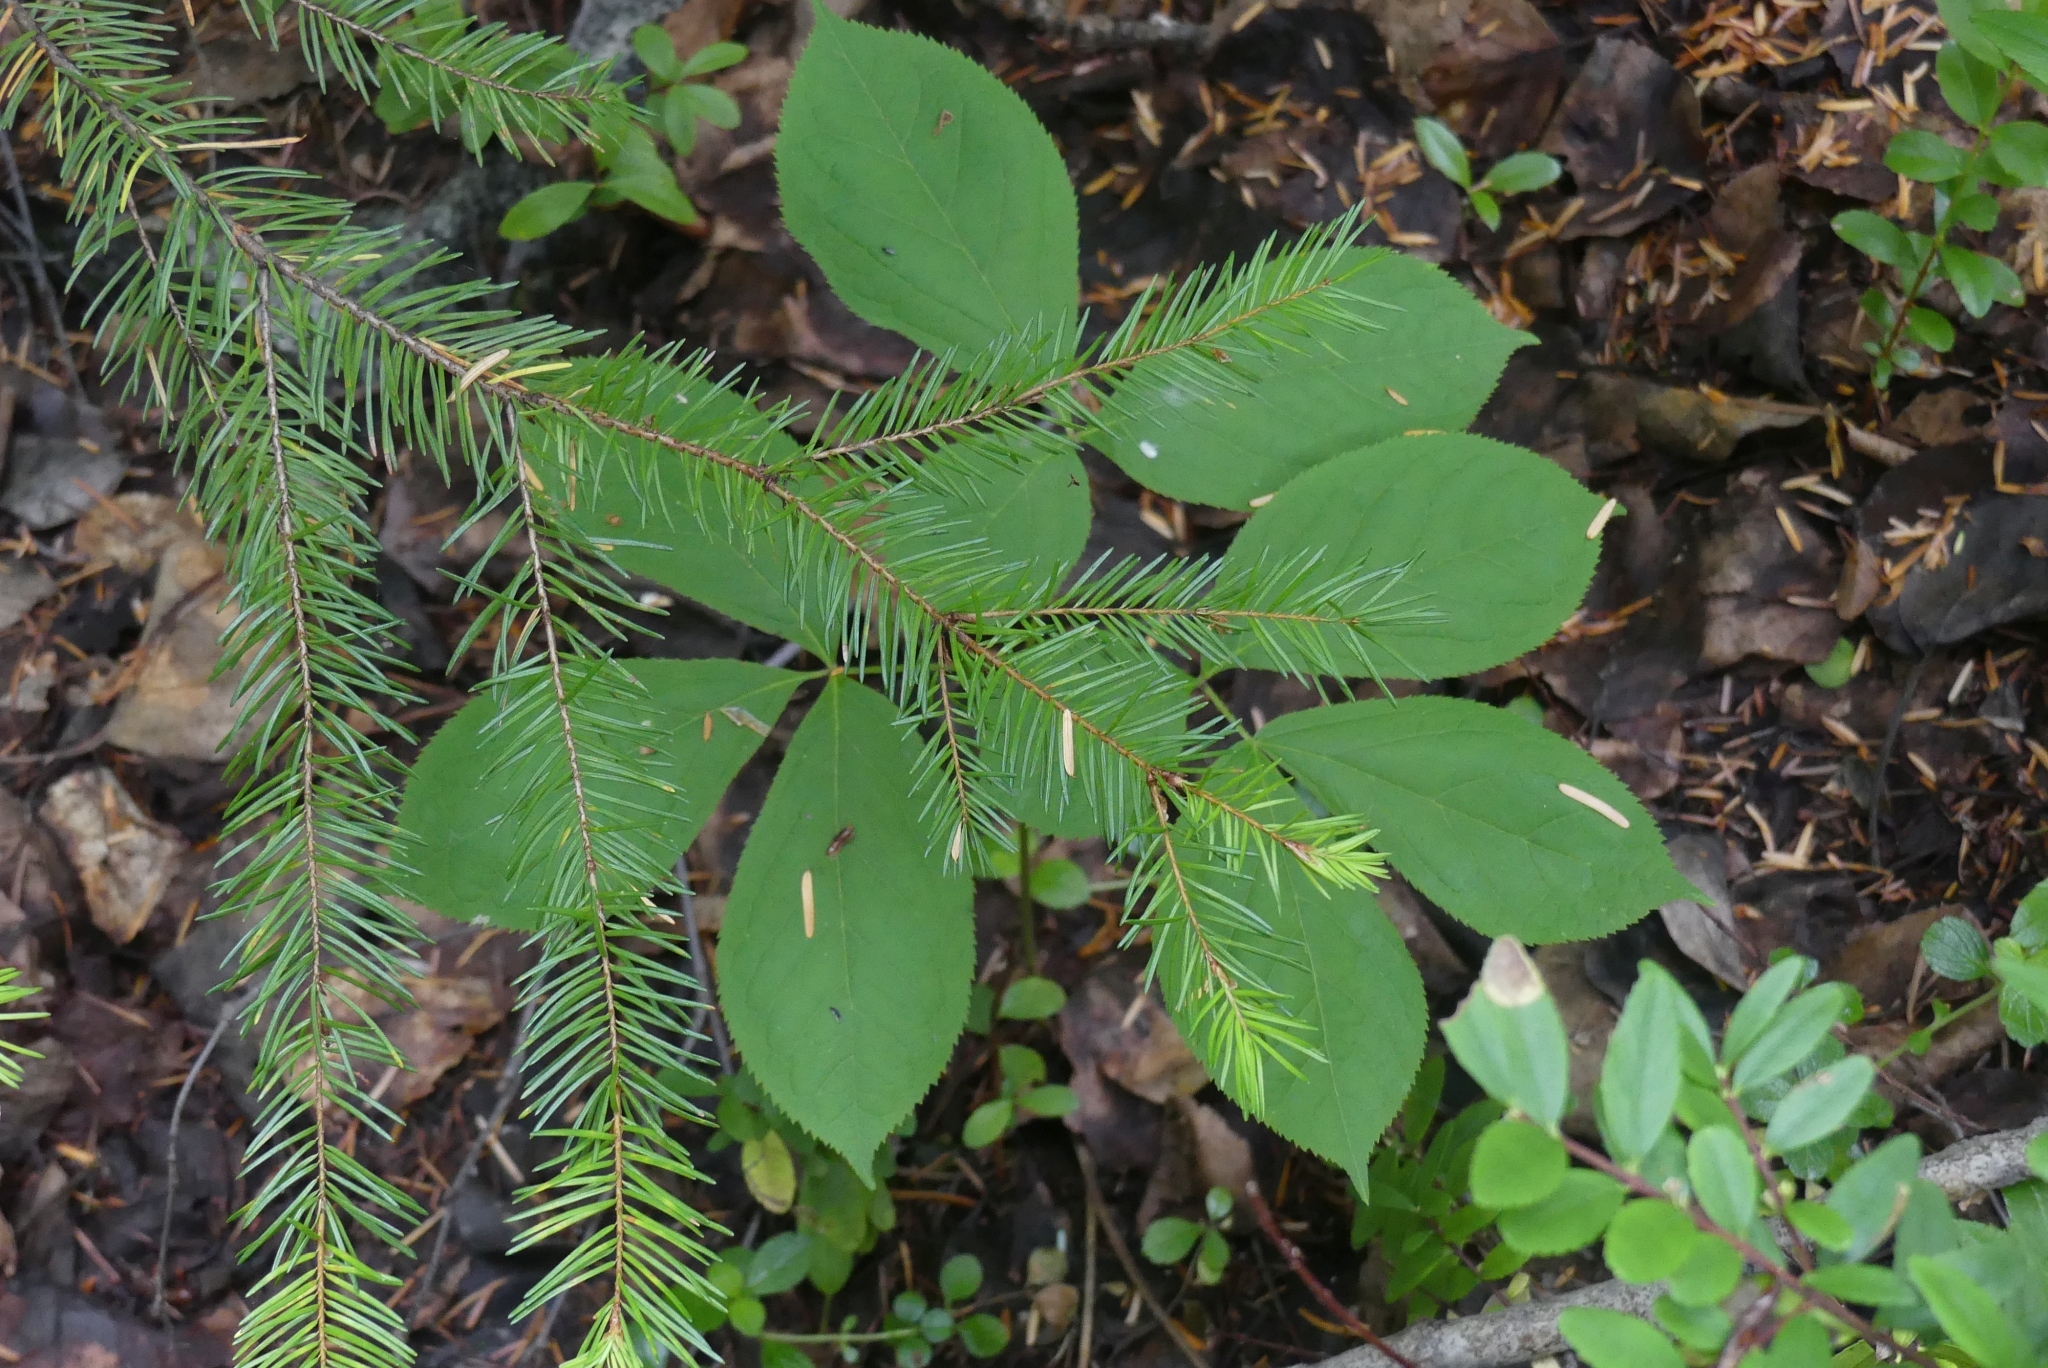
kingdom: Plantae
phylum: Tracheophyta
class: Magnoliopsida
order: Apiales
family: Araliaceae
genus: Aralia
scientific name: Aralia nudicaulis
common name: Wild sarsaparilla
